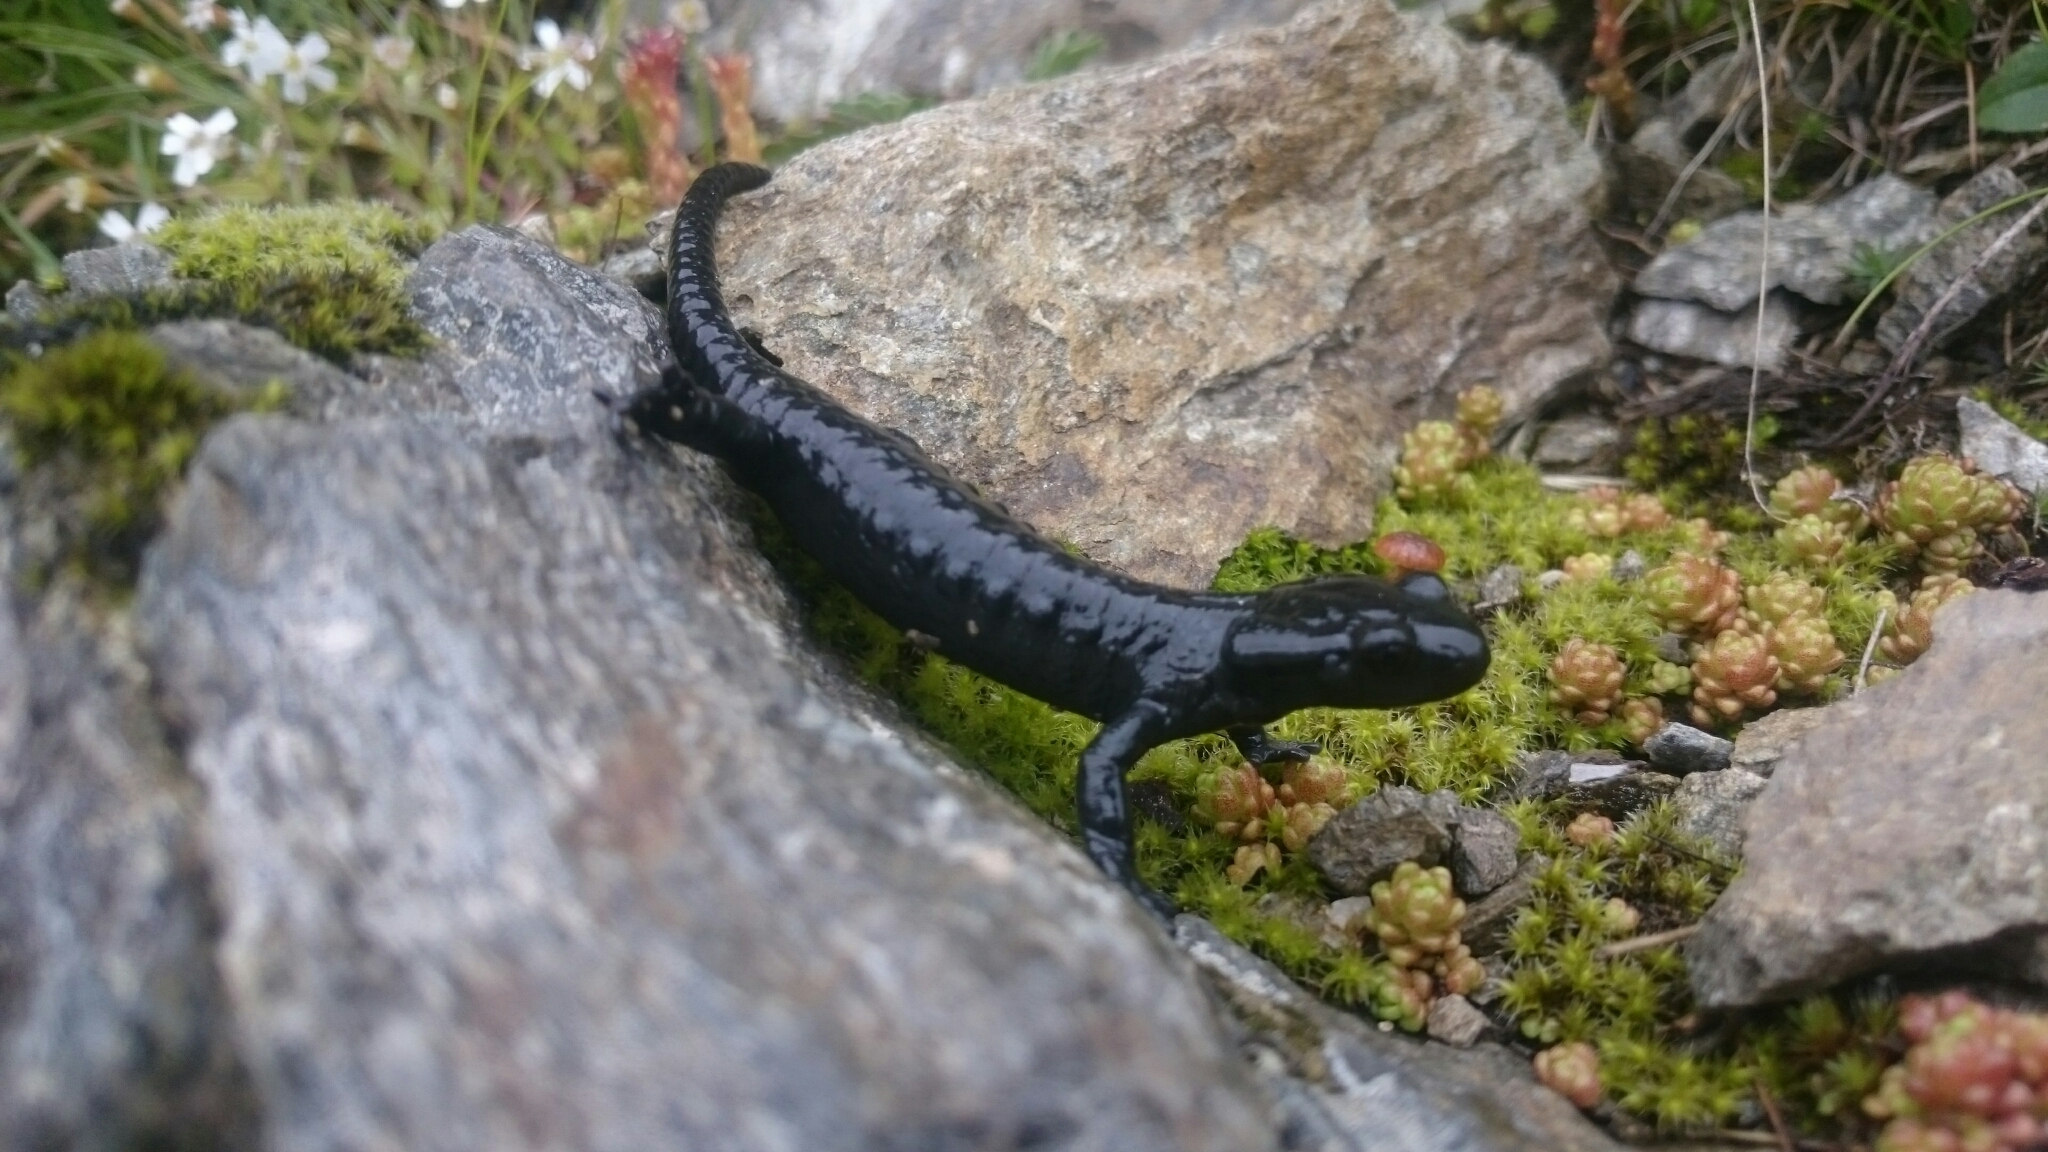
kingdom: Animalia
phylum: Chordata
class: Amphibia
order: Caudata
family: Salamandridae
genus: Salamandra
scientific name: Salamandra atra
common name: Alpine salamander
